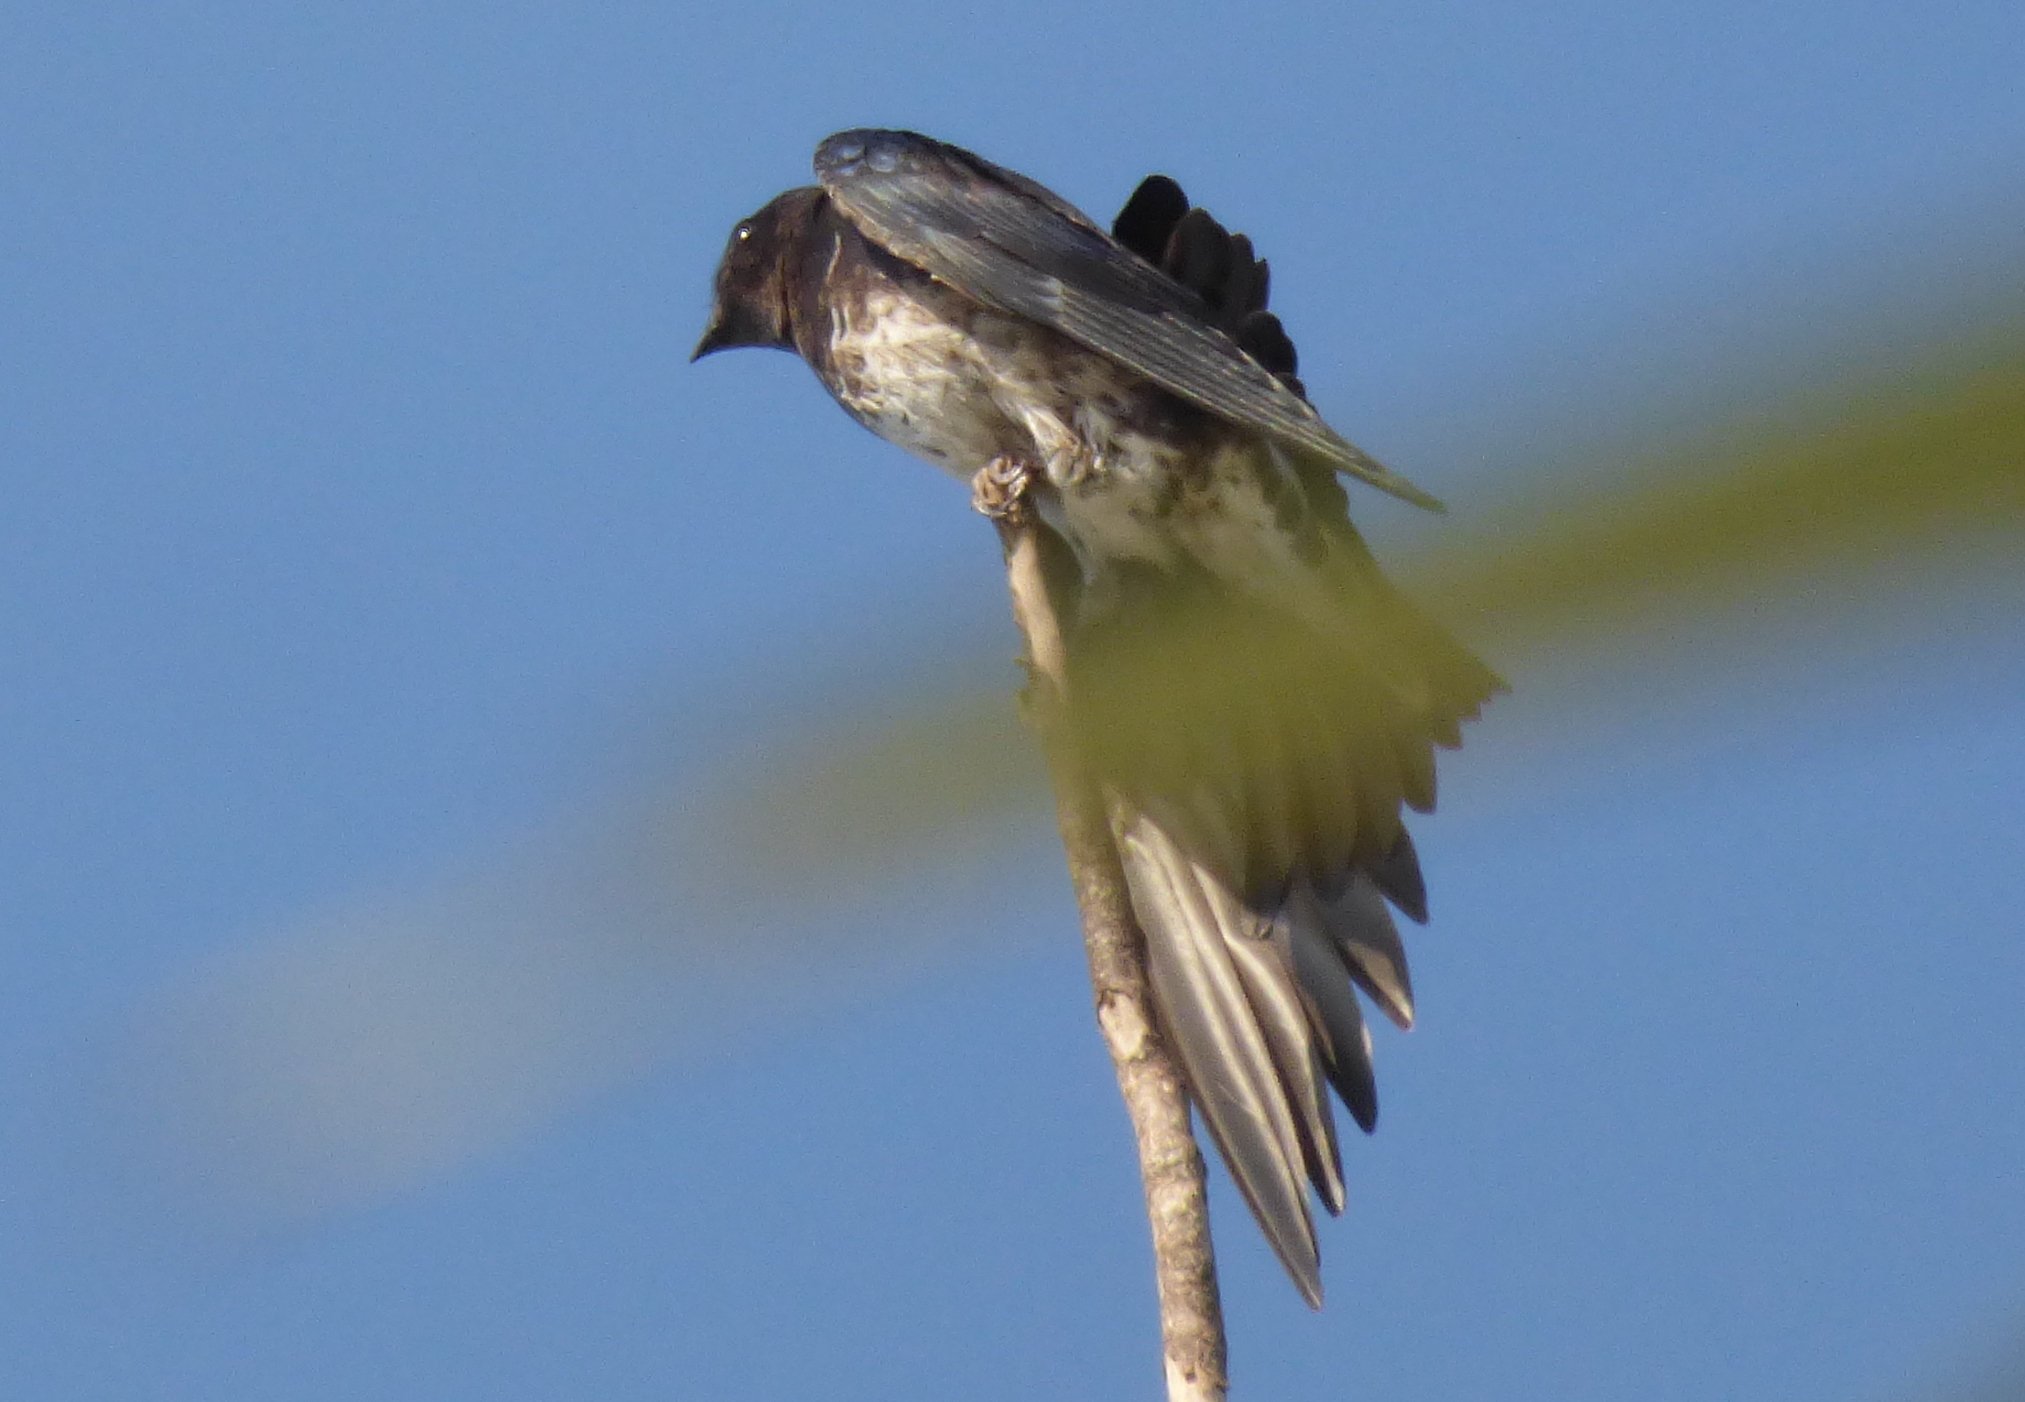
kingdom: Animalia
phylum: Chordata
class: Aves
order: Passeriformes
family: Hirundinidae
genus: Progne
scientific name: Progne elegans
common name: Southern martin
